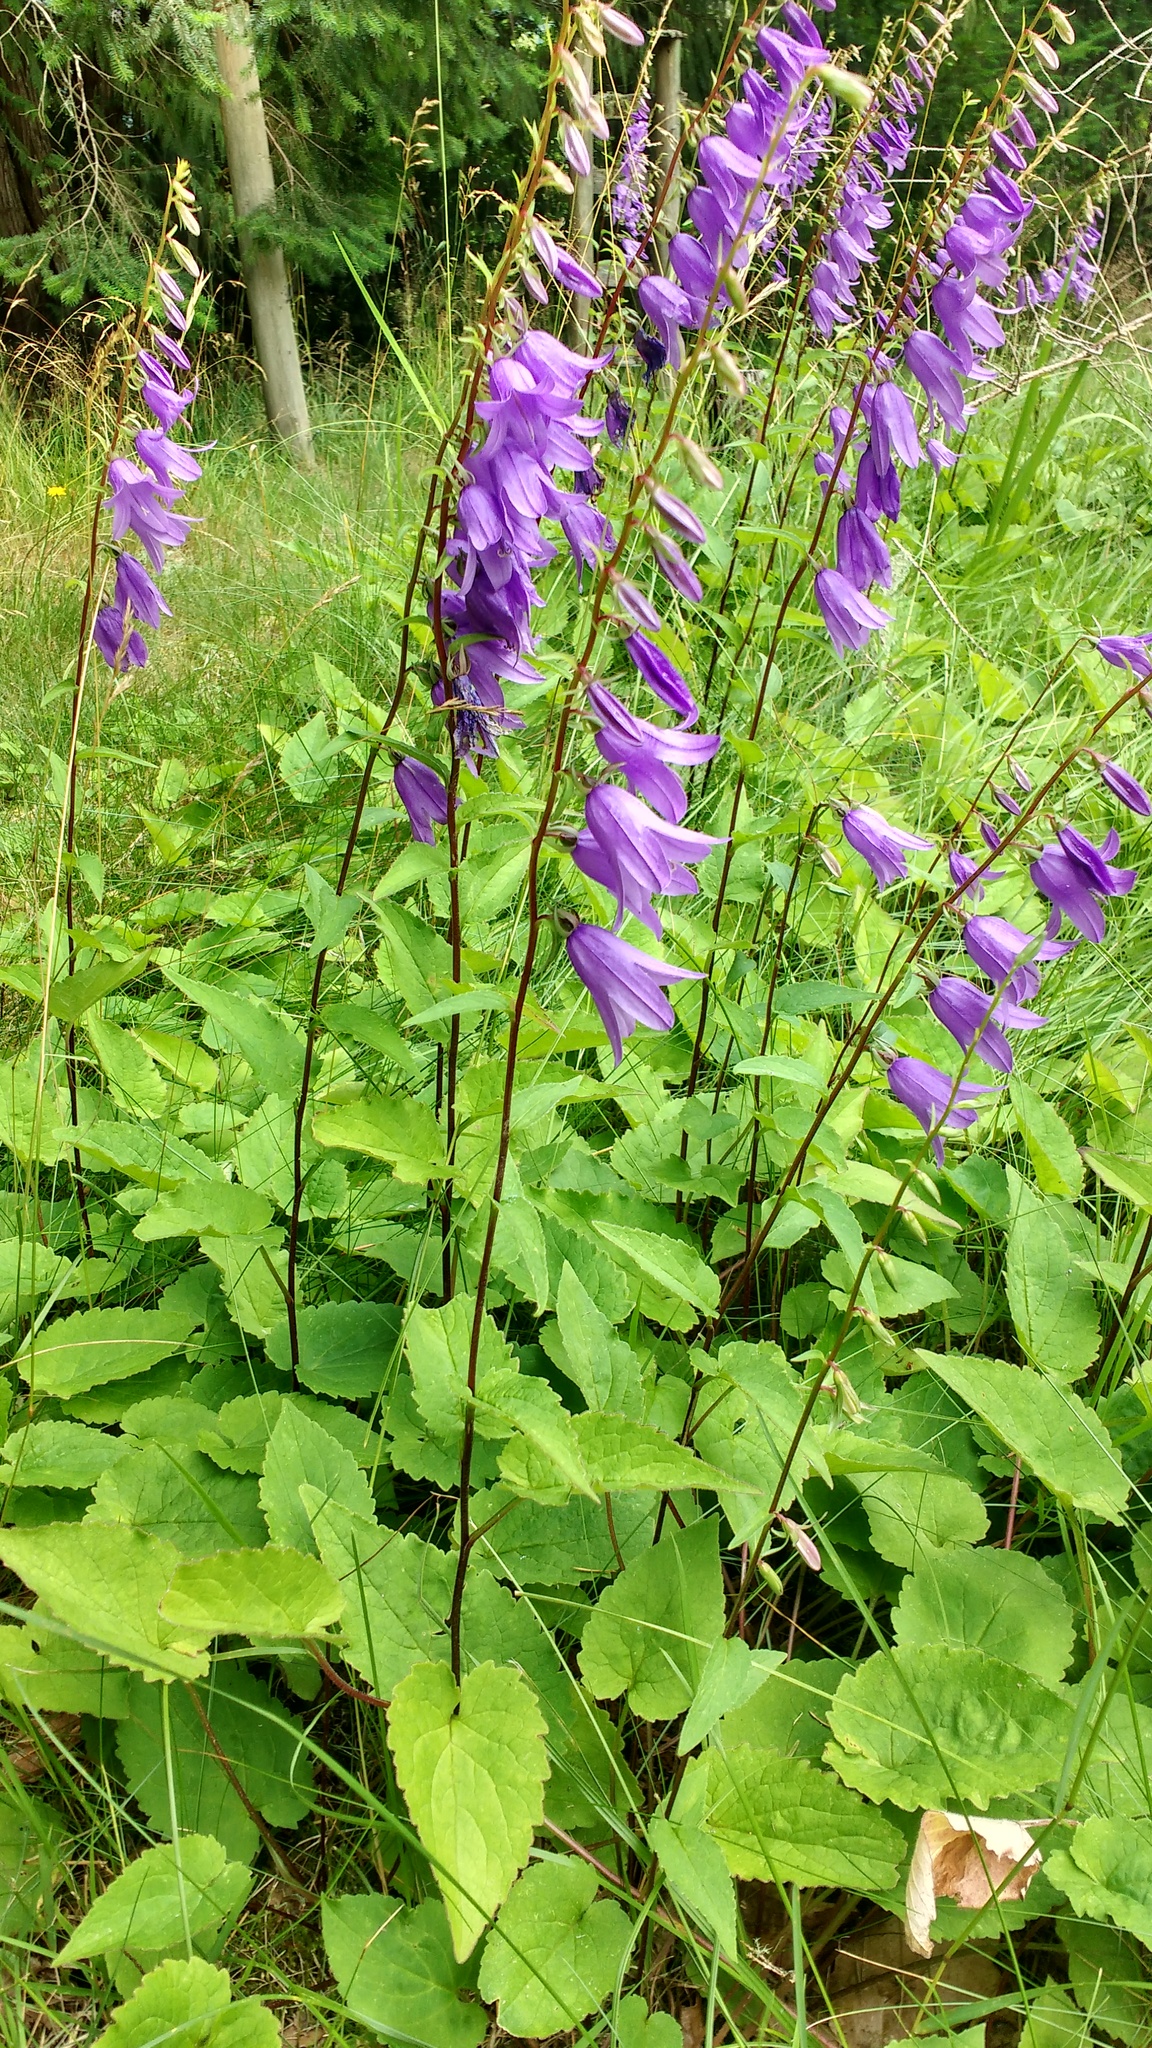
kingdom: Plantae
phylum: Tracheophyta
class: Magnoliopsida
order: Asterales
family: Campanulaceae
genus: Campanula
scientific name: Campanula rapunculoides
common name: Creeping bellflower
